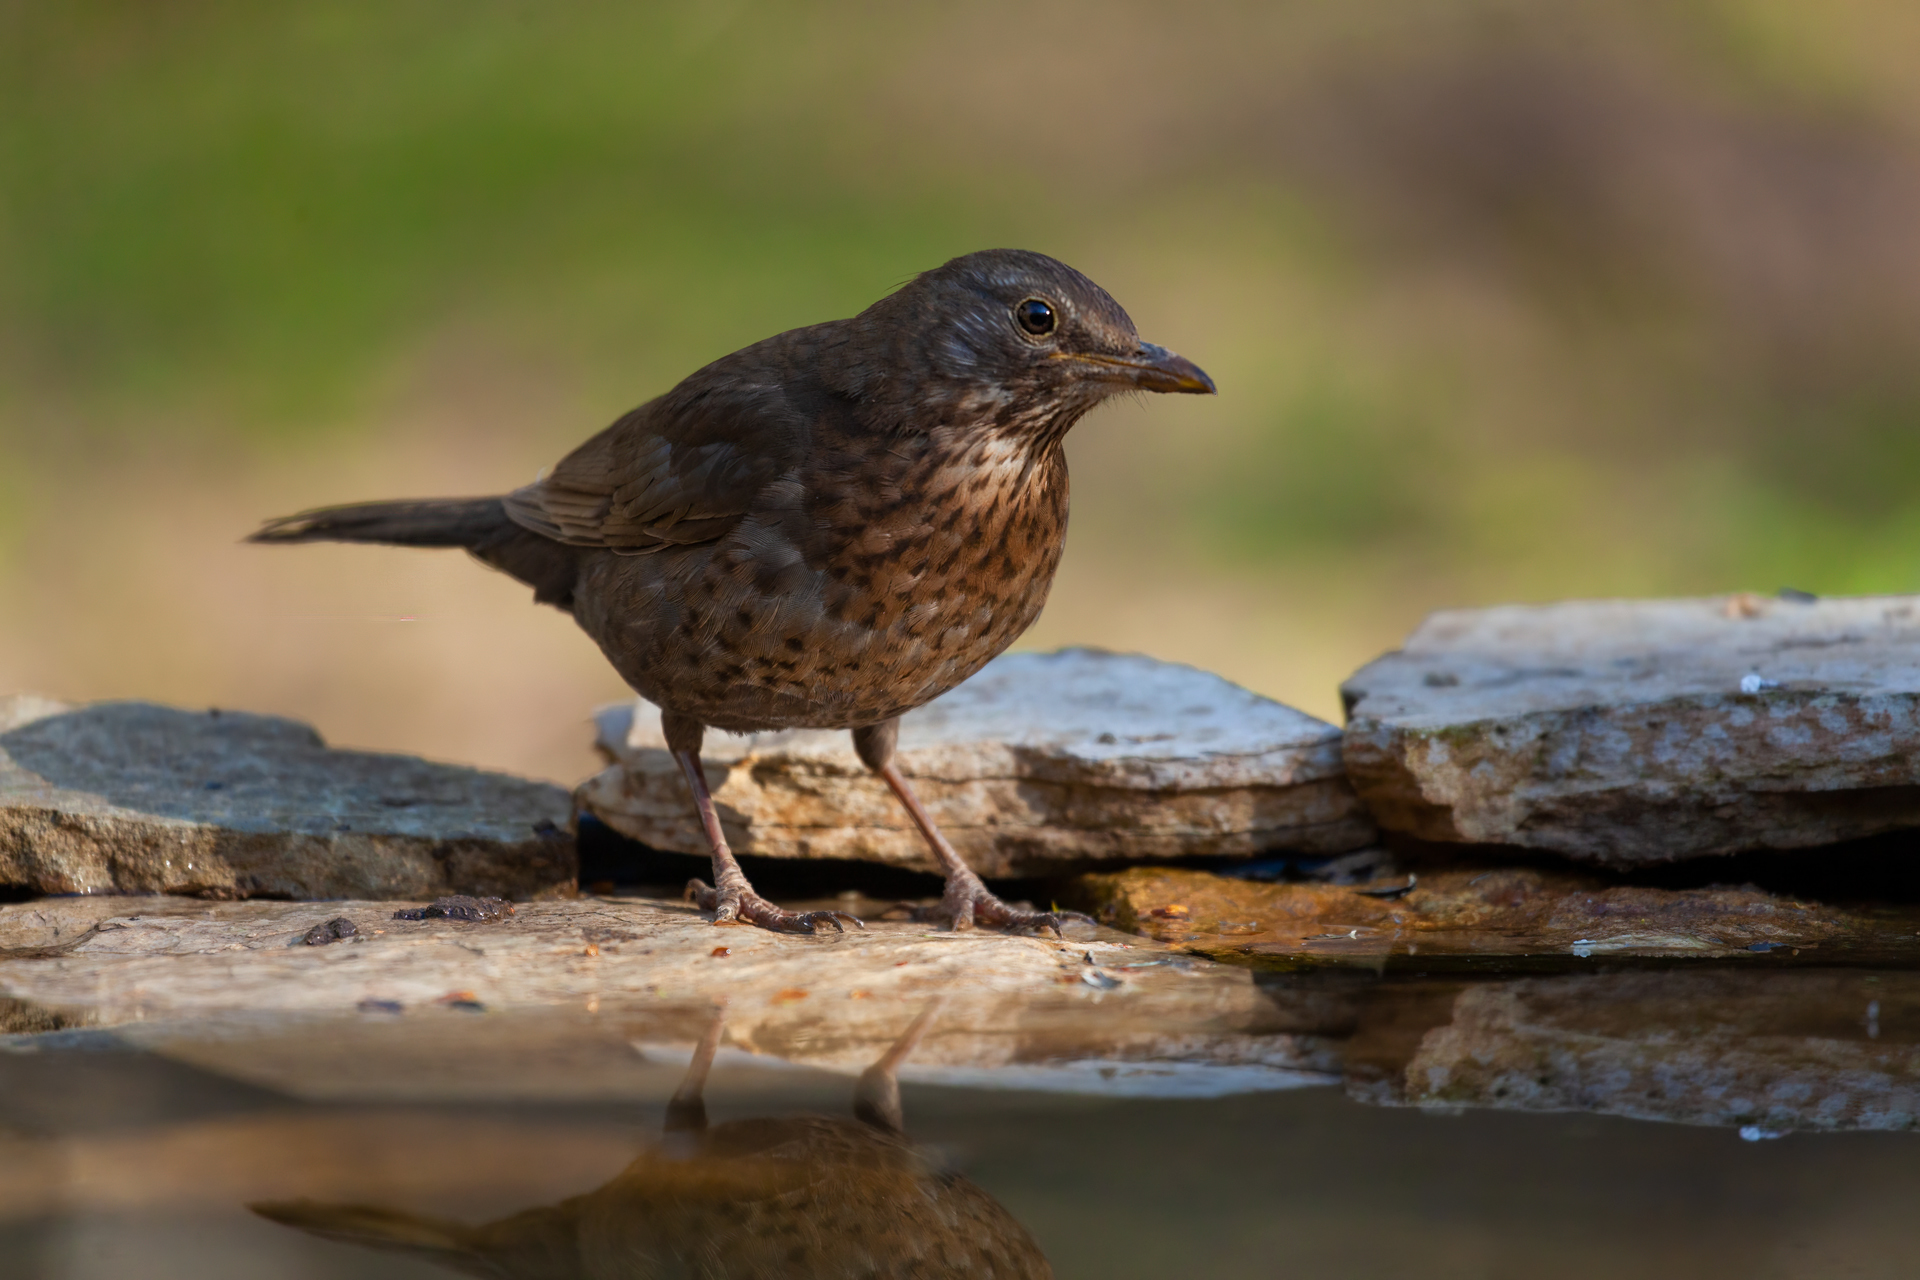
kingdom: Animalia
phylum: Chordata
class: Aves
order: Passeriformes
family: Turdidae
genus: Turdus
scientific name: Turdus merula
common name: Common blackbird
